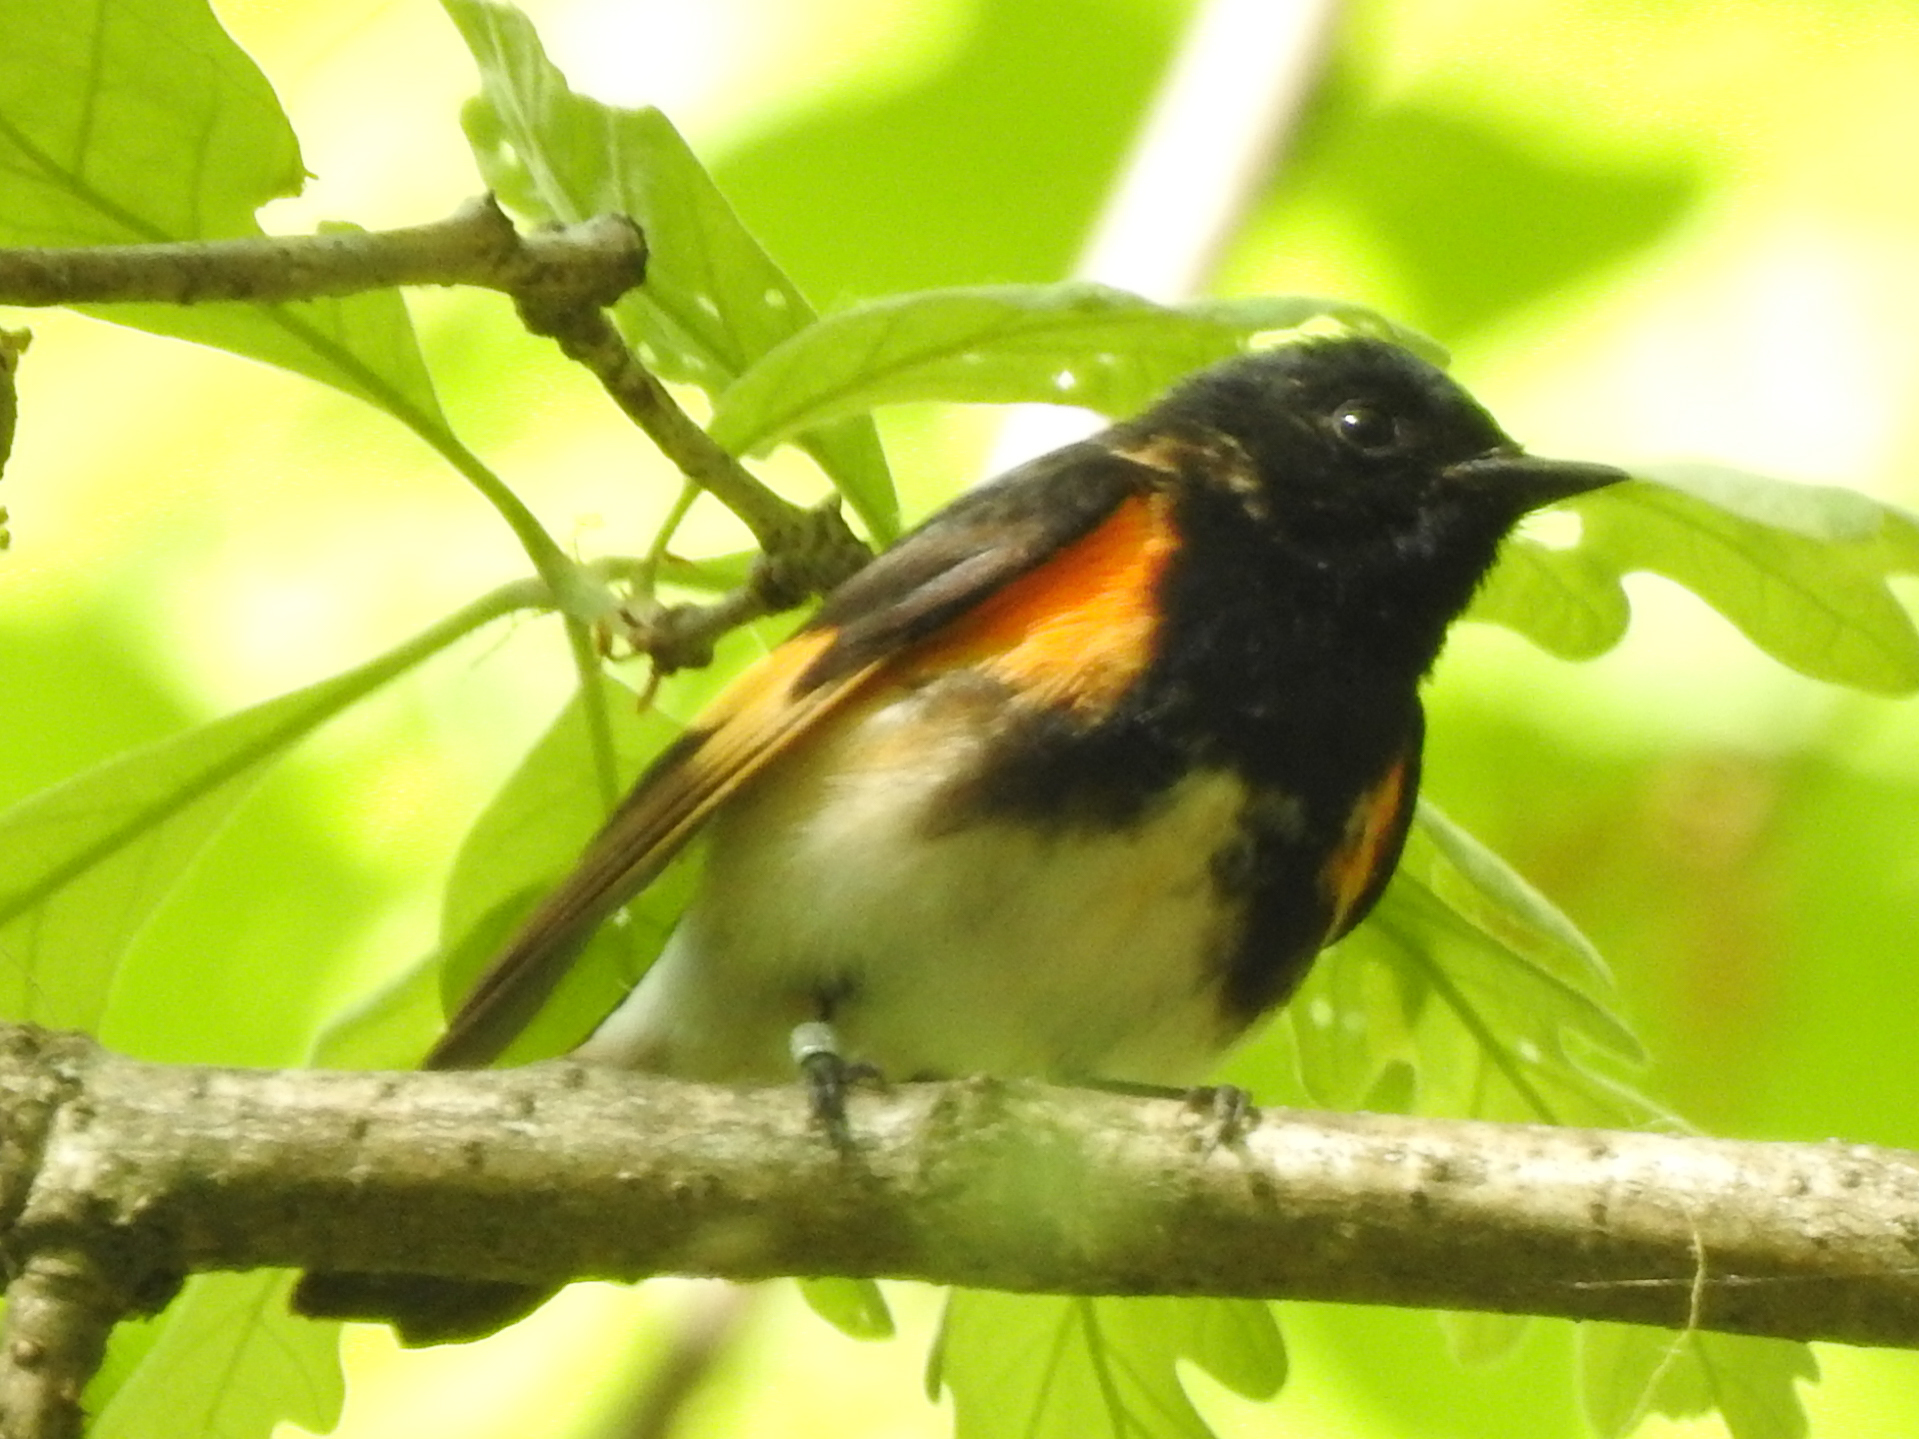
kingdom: Animalia
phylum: Chordata
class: Aves
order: Passeriformes
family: Parulidae
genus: Setophaga
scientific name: Setophaga ruticilla
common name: American redstart
